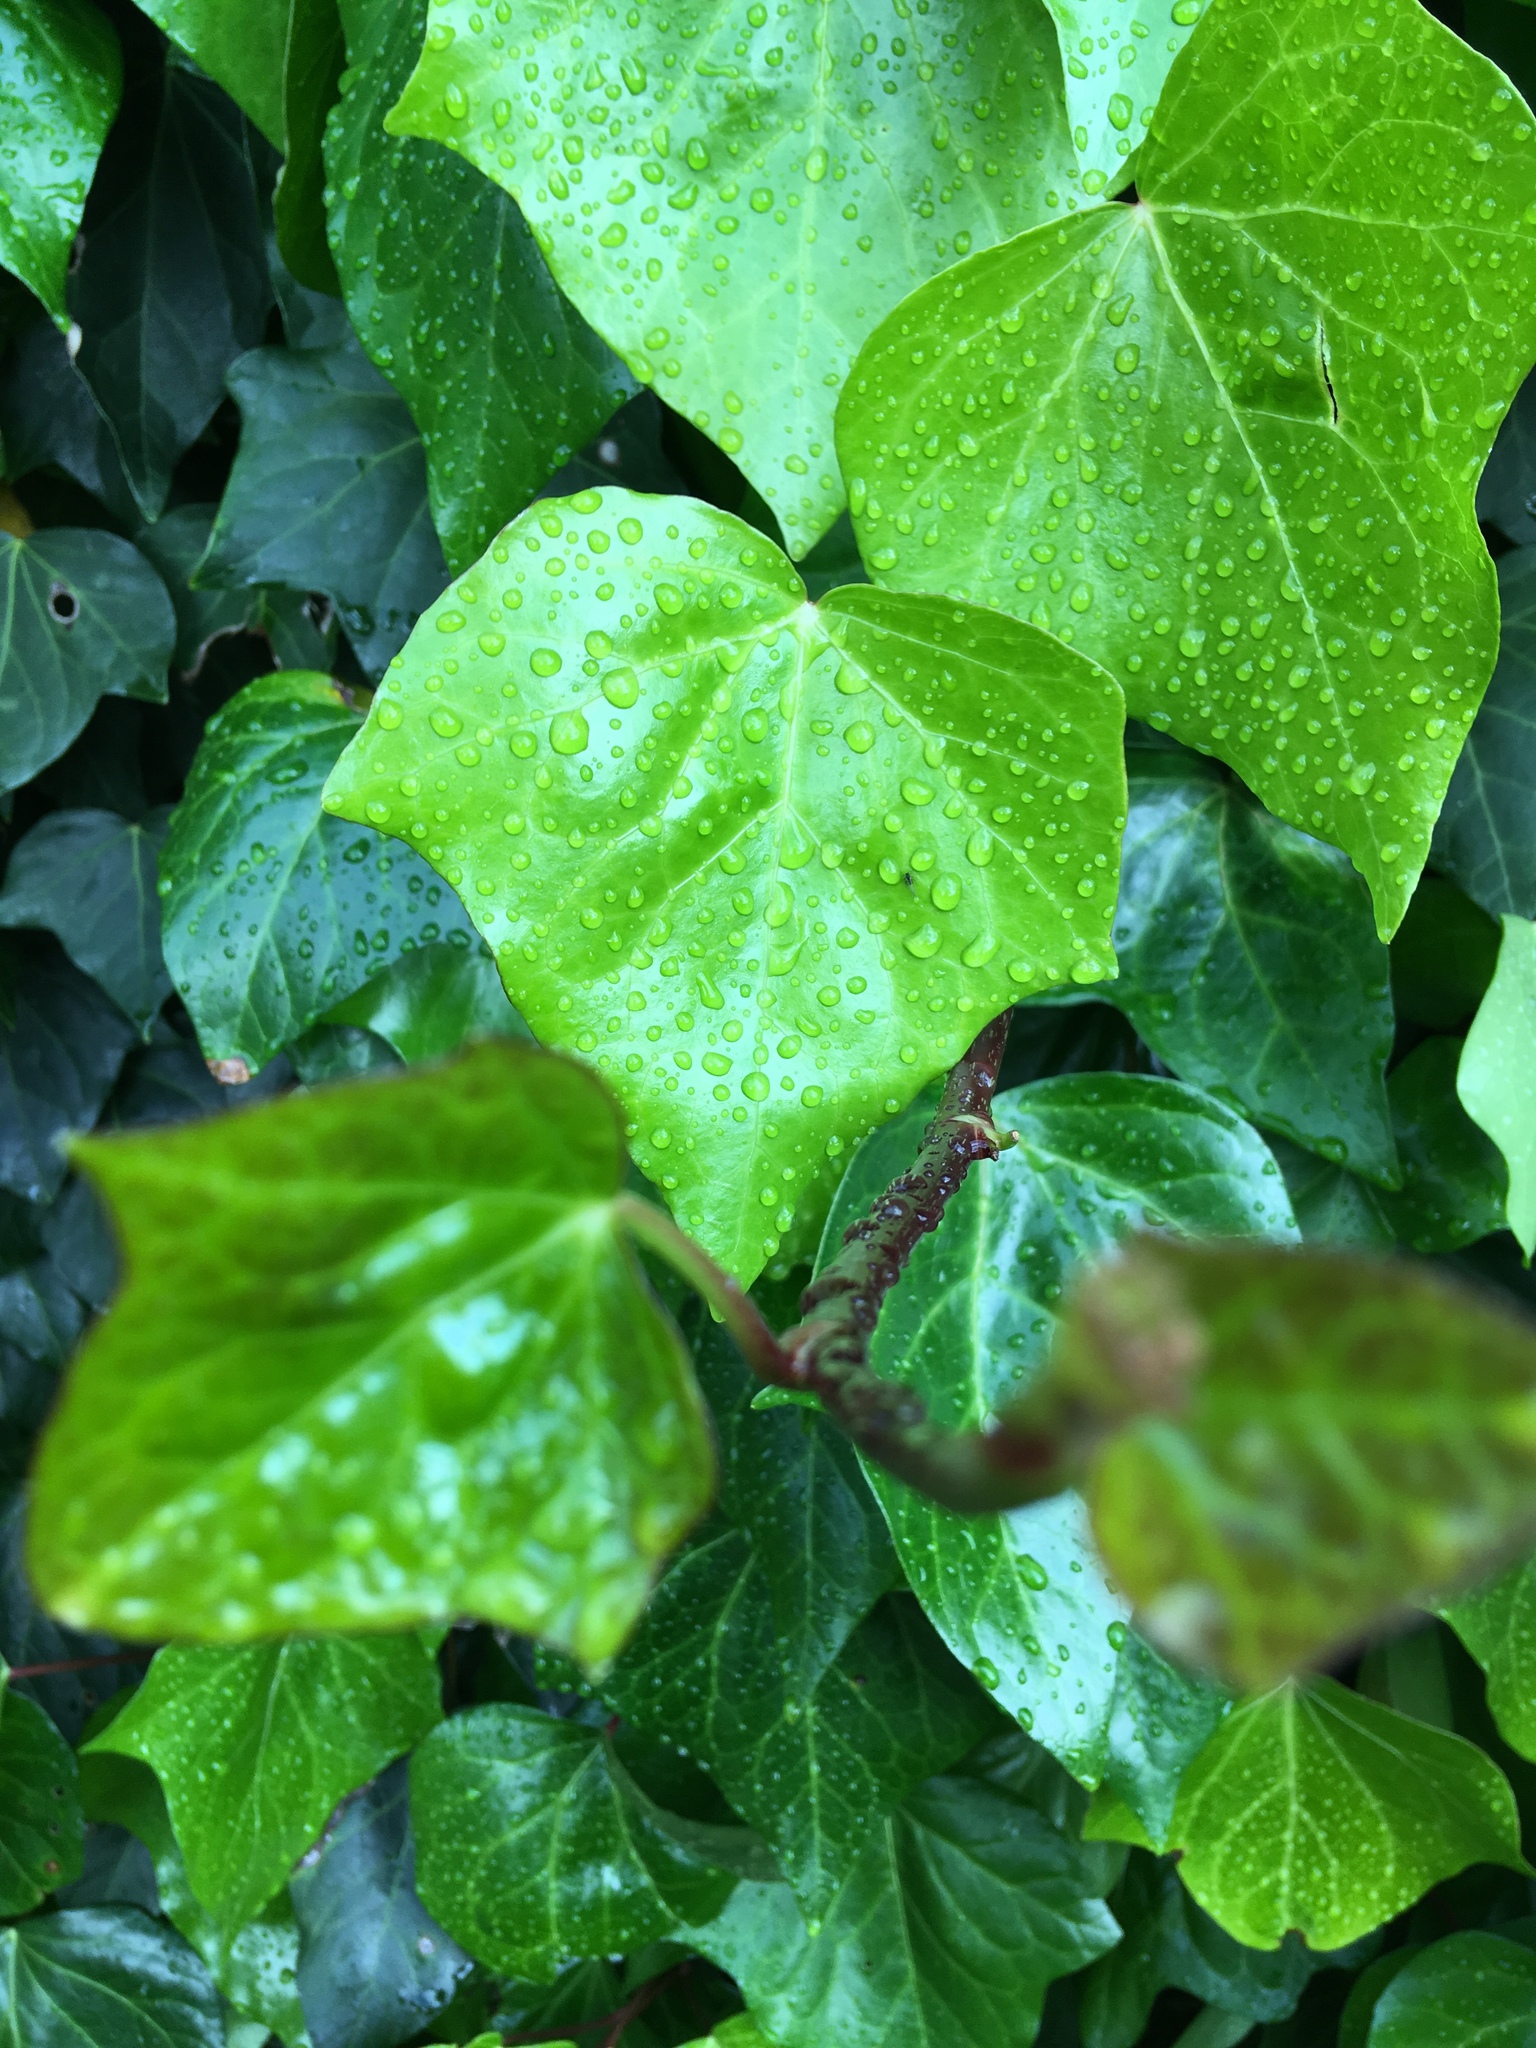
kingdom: Plantae
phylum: Tracheophyta
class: Magnoliopsida
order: Apiales
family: Araliaceae
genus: Hedera
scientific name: Hedera canariensis
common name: Madeira ivy
